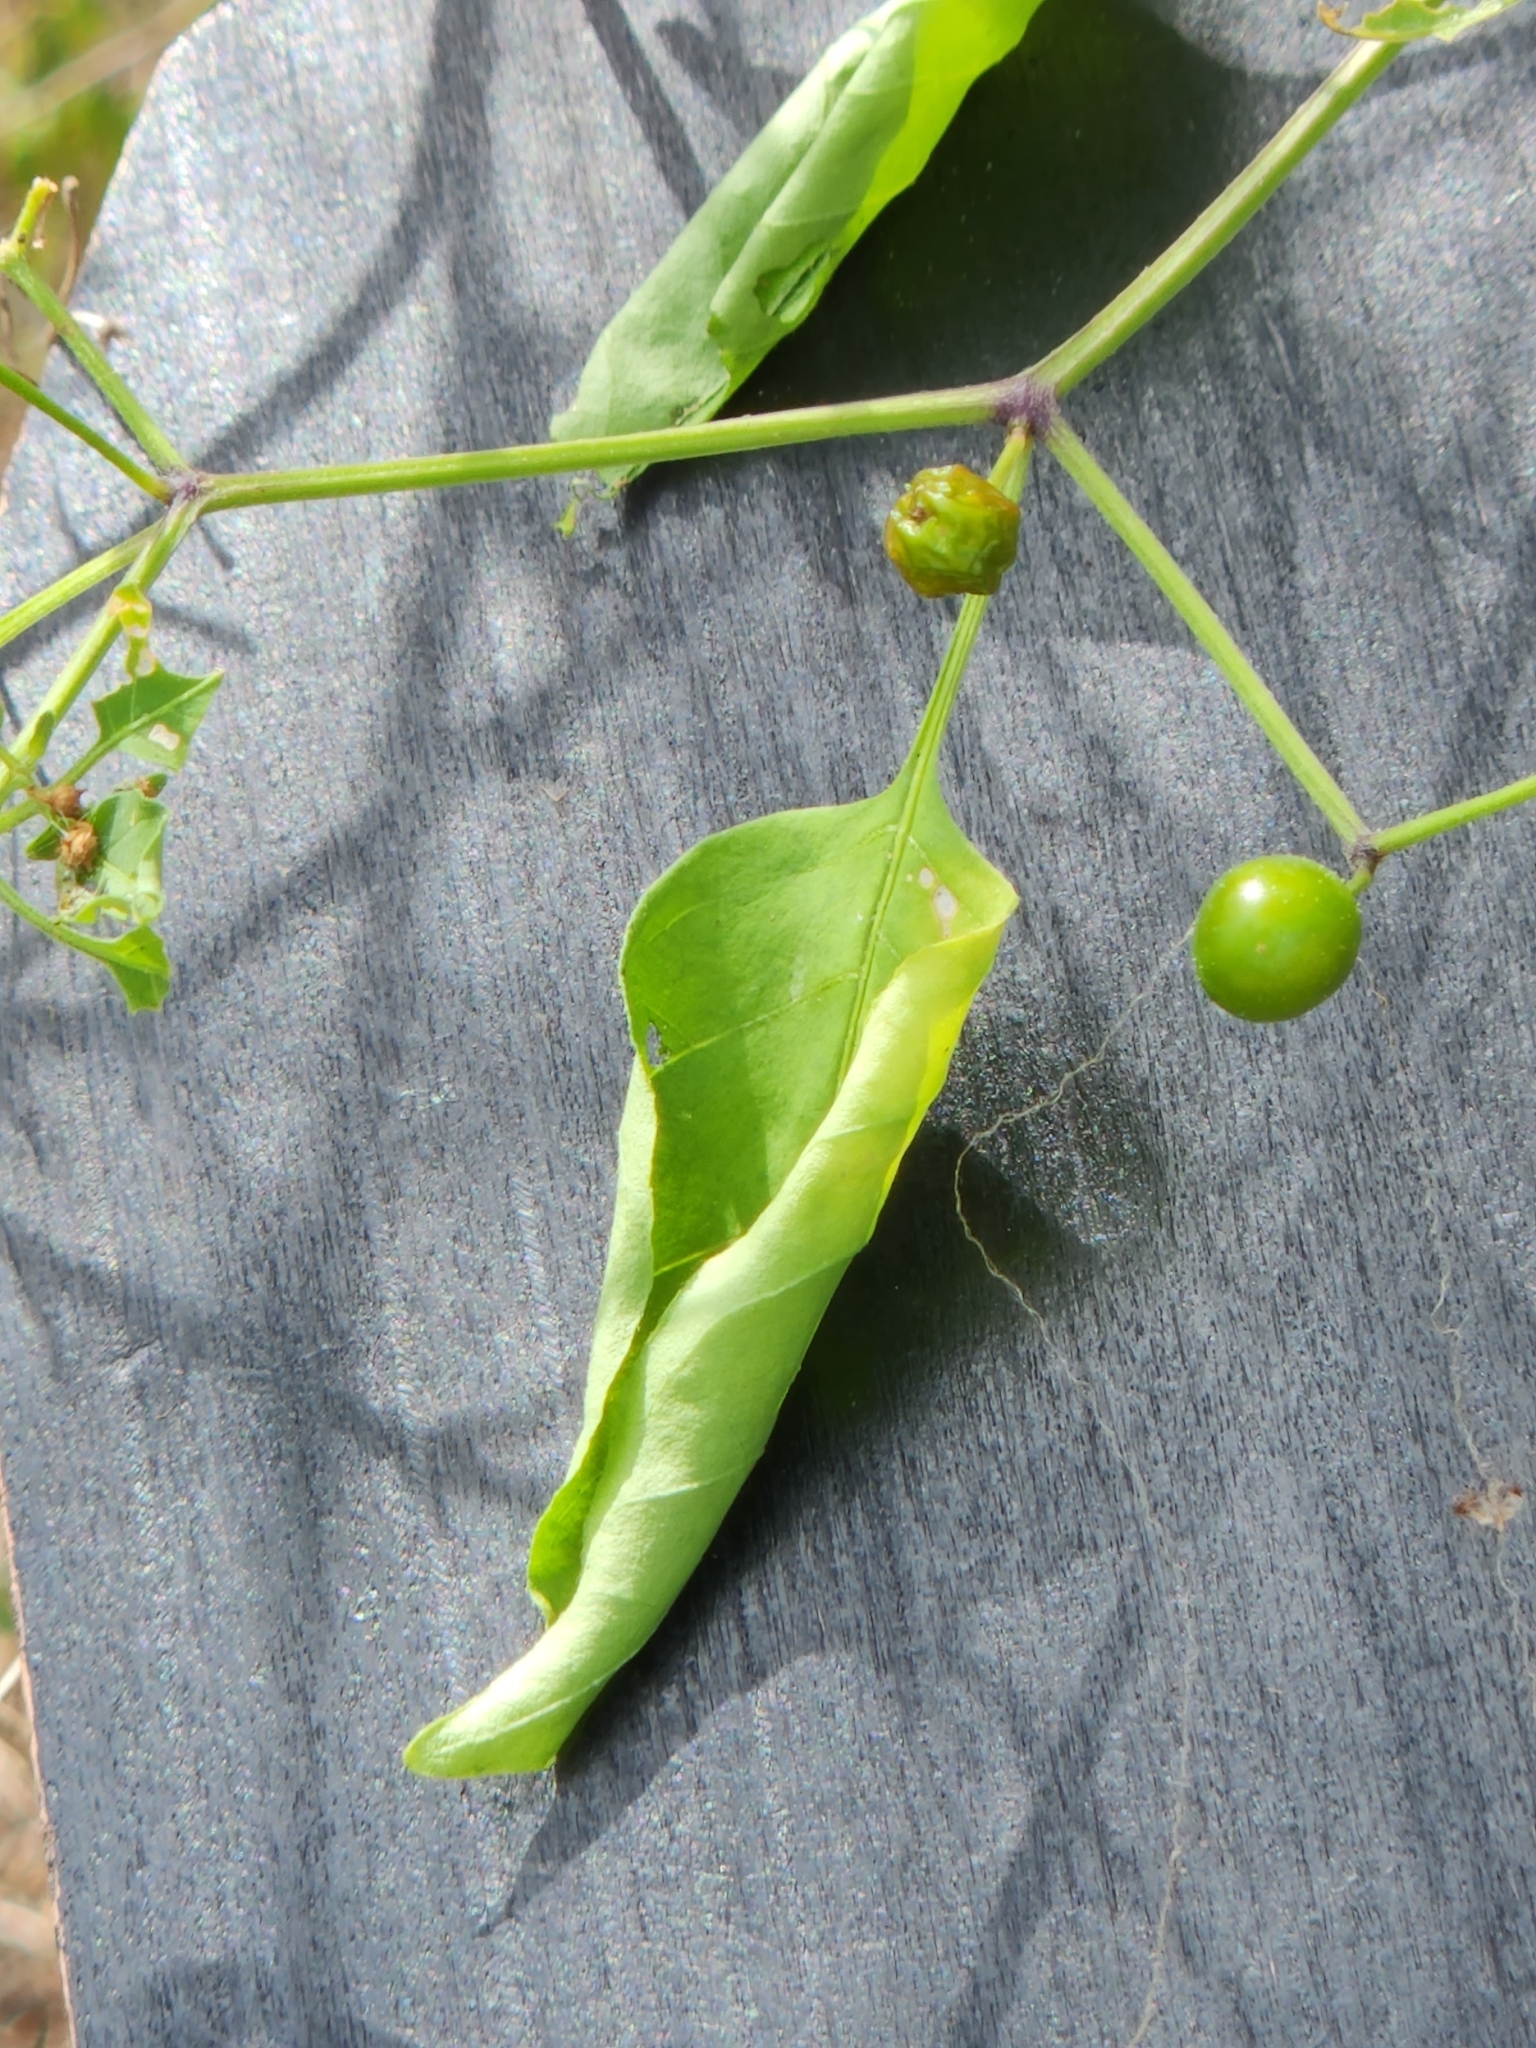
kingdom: Plantae
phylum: Tracheophyta
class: Magnoliopsida
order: Solanales
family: Solanaceae
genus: Capsicum
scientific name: Capsicum annuum
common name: Sweet pepper
